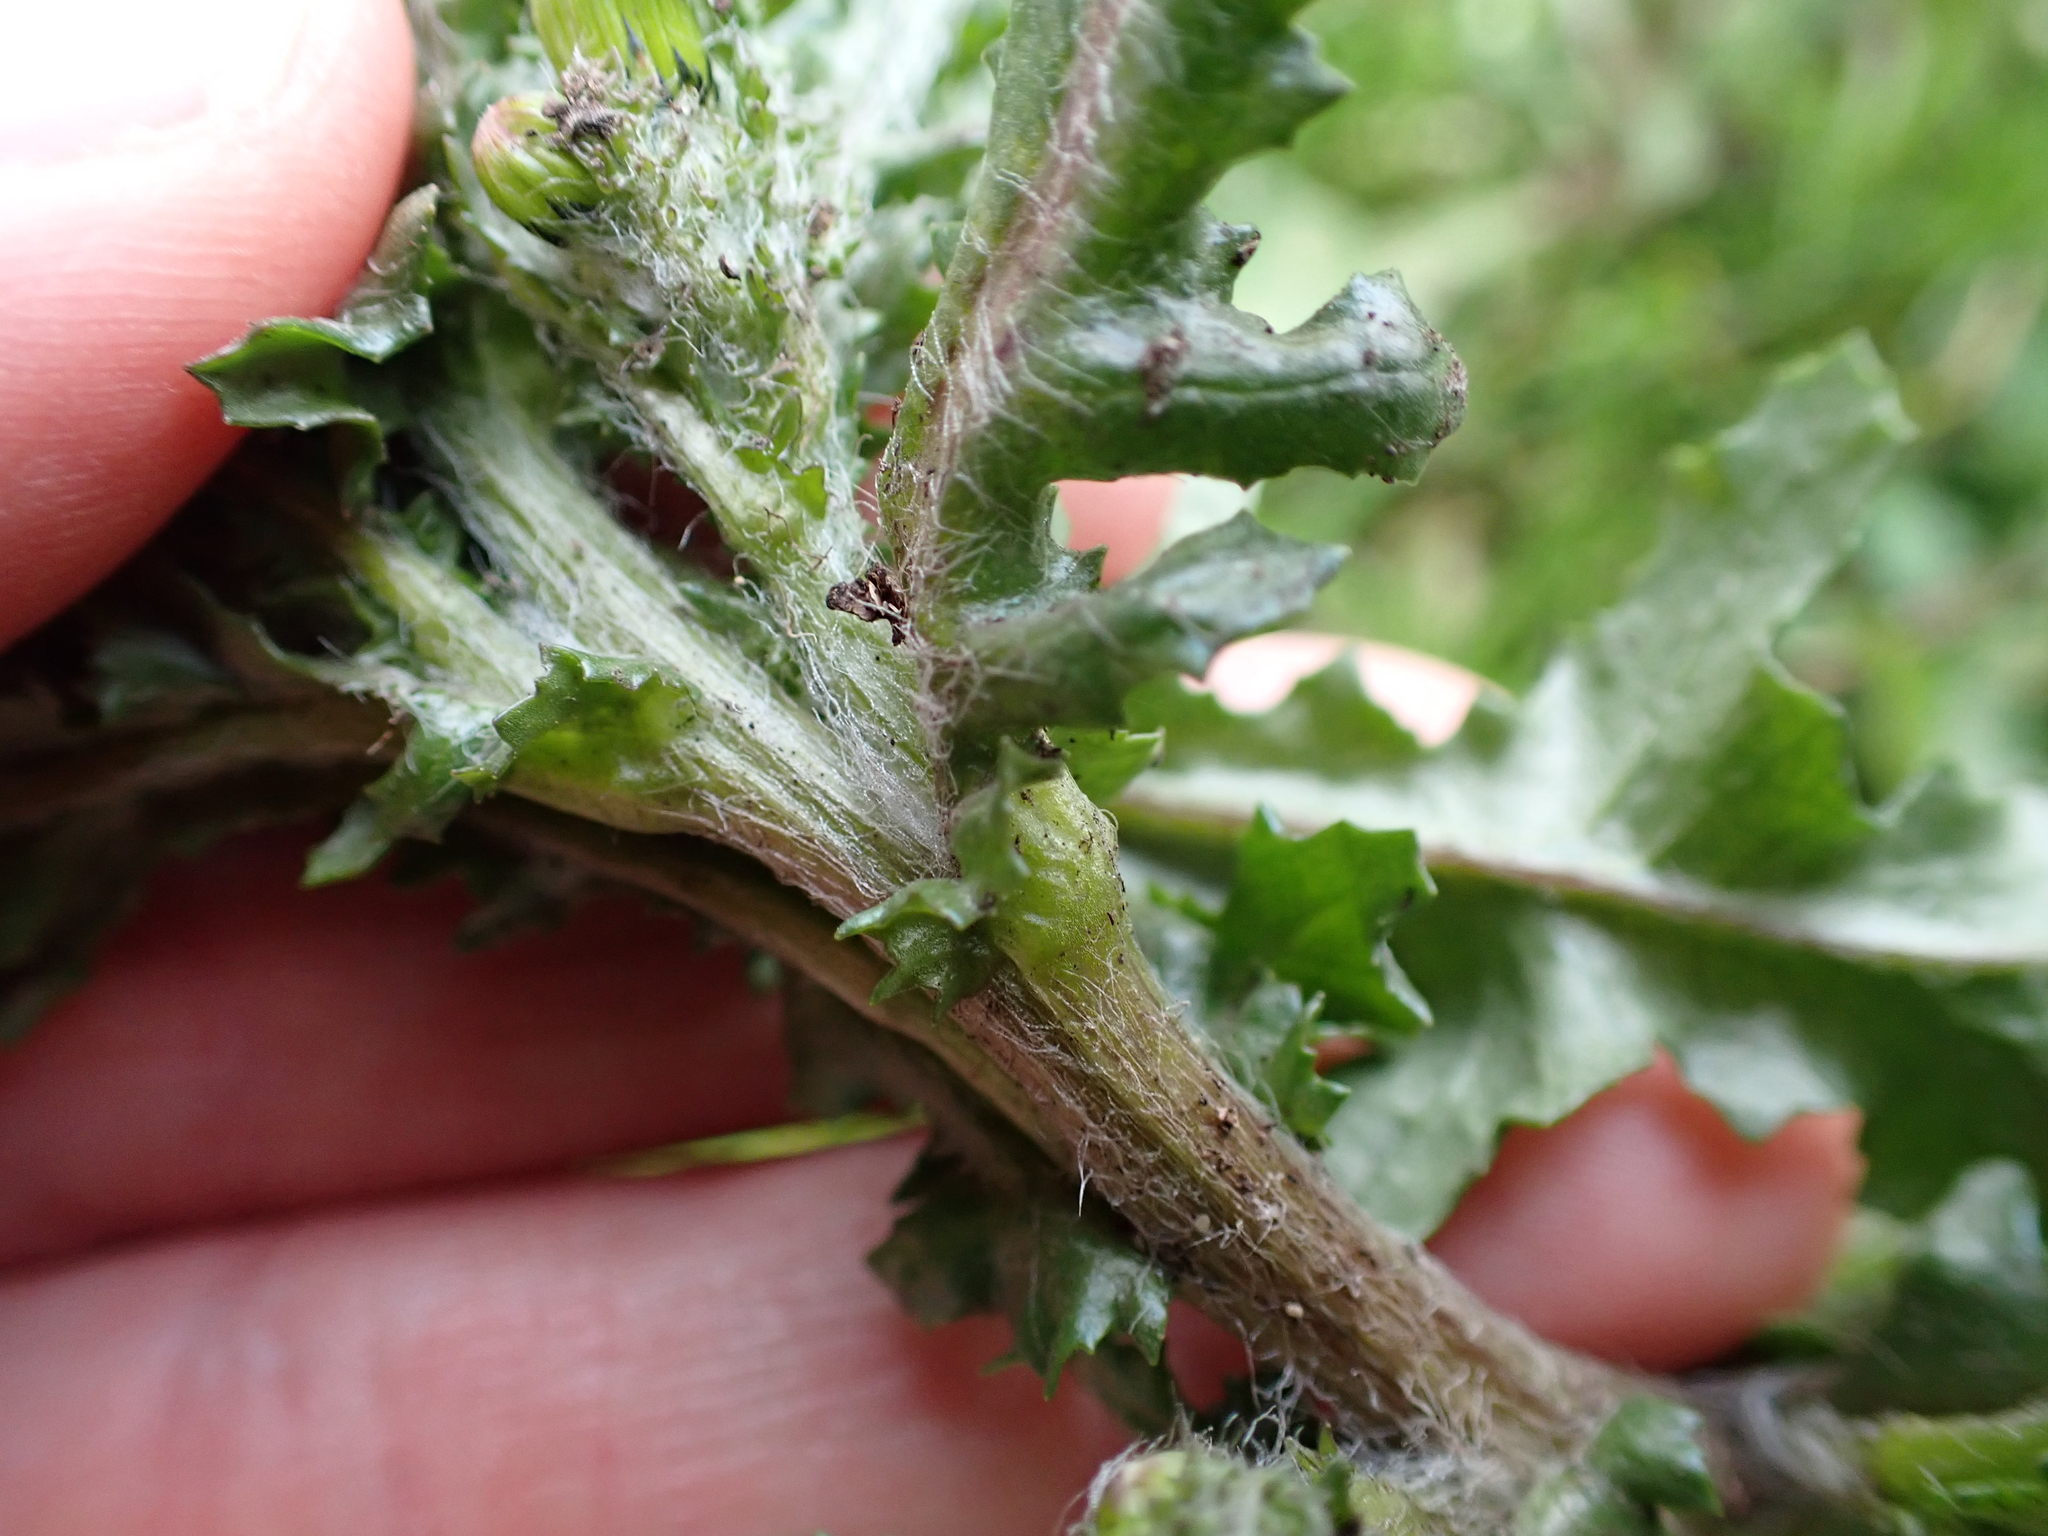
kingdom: Plantae
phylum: Tracheophyta
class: Magnoliopsida
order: Asterales
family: Asteraceae
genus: Senecio
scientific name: Senecio vulgaris
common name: Old-man-in-the-spring
